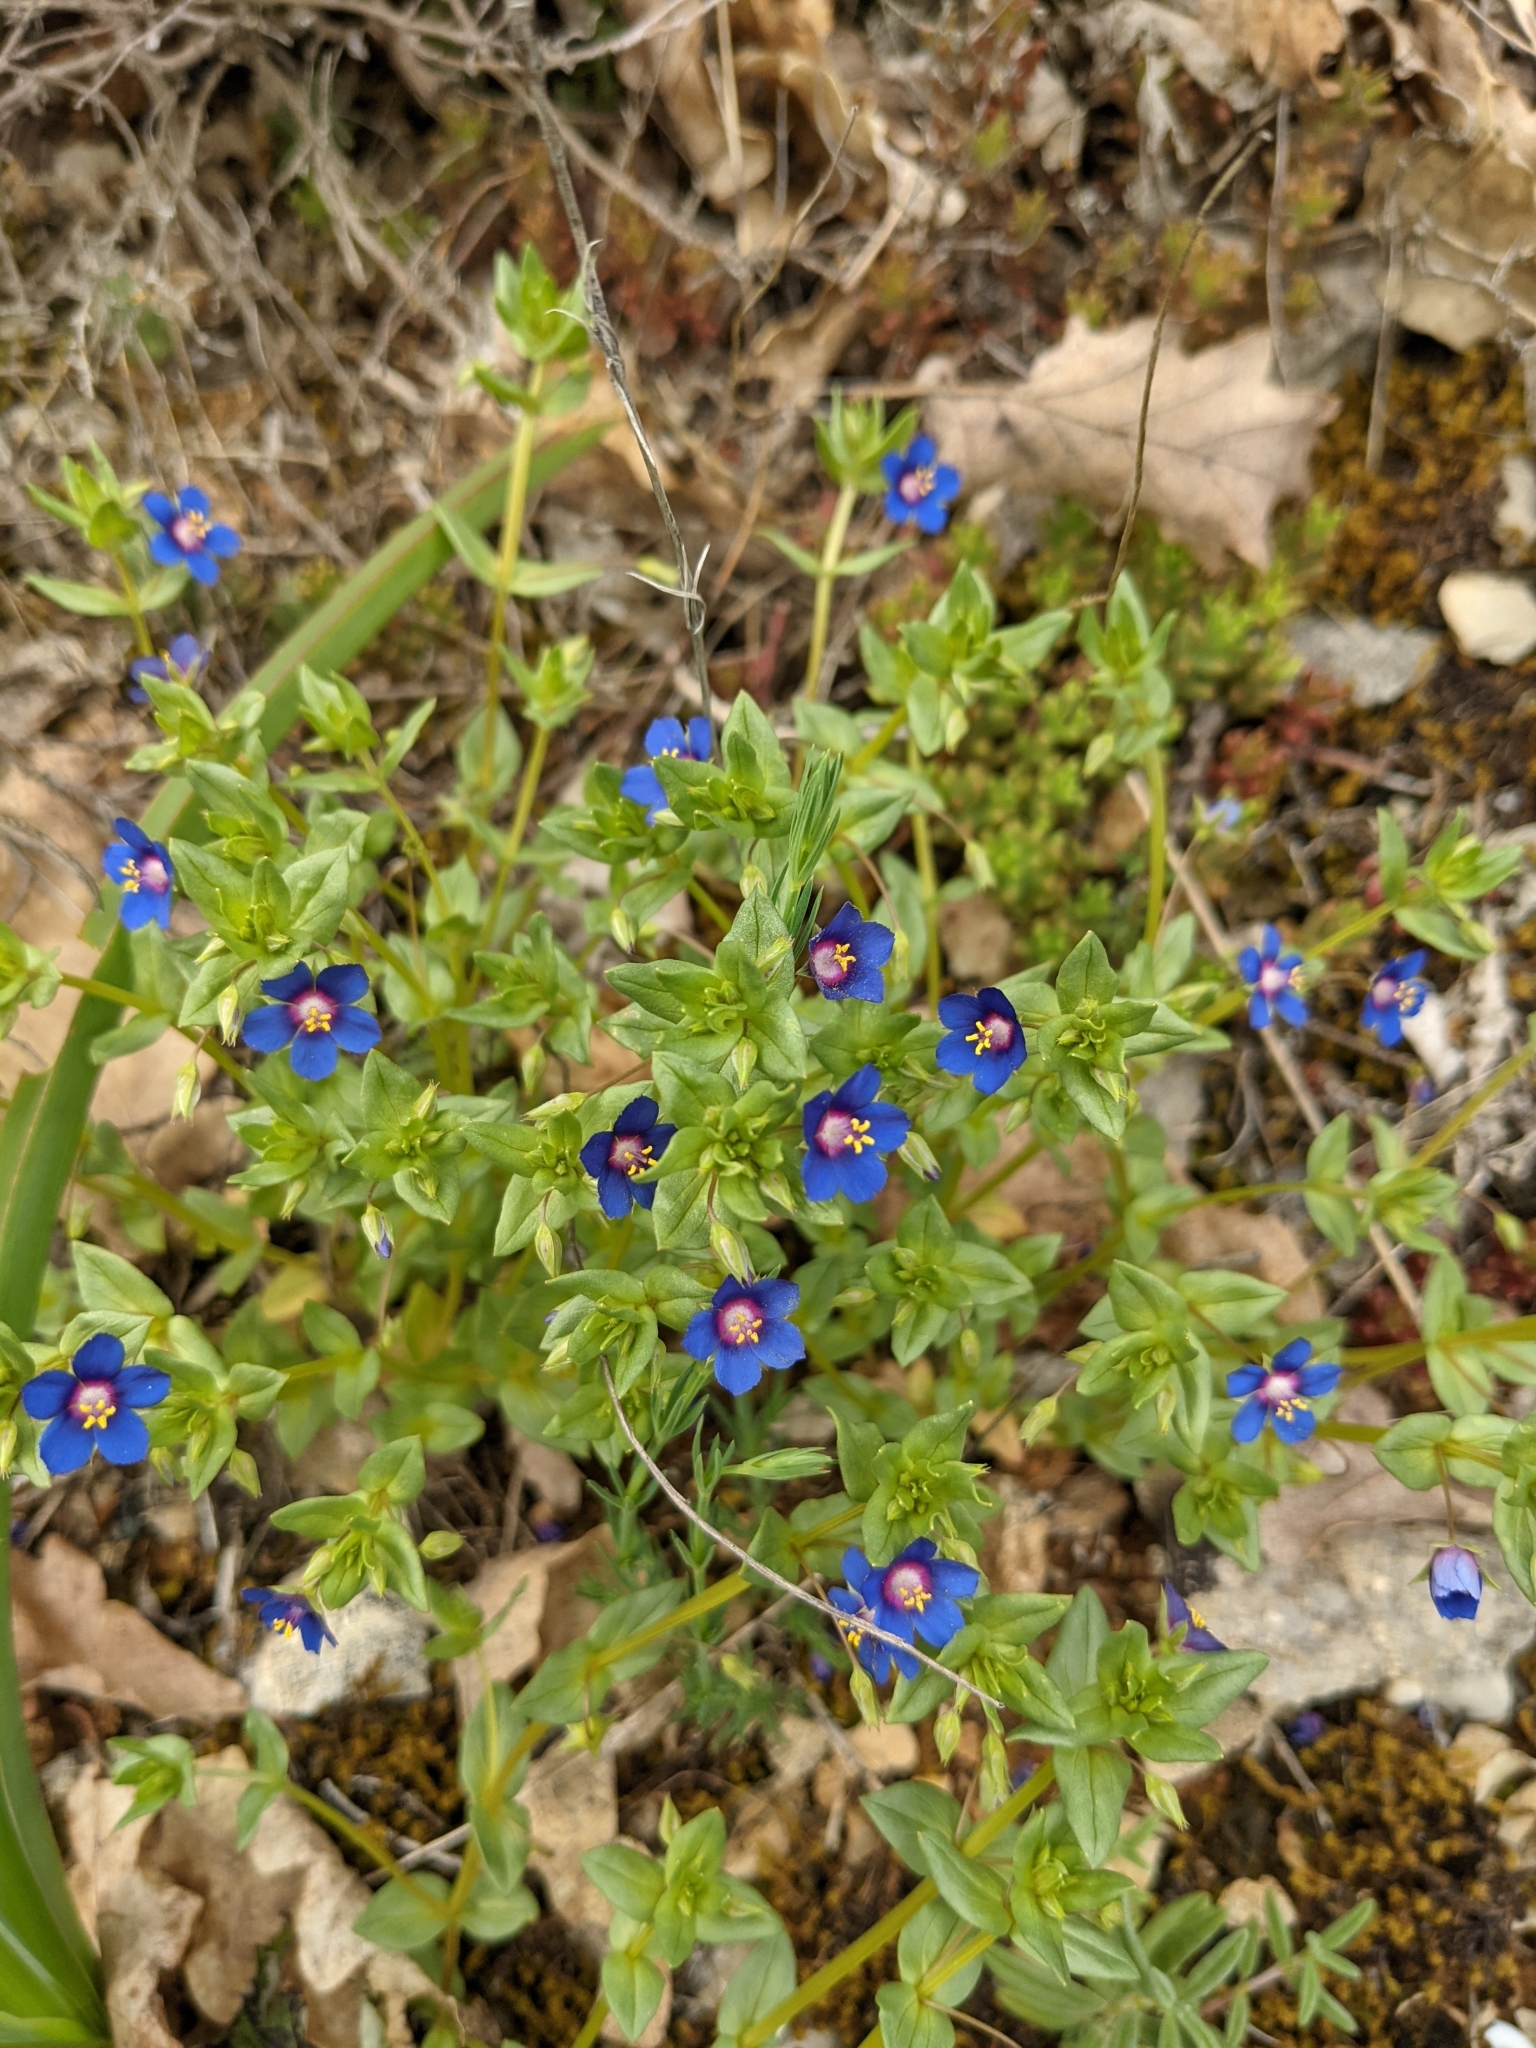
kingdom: Plantae
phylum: Tracheophyta
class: Magnoliopsida
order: Ericales
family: Primulaceae
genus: Lysimachia
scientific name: Lysimachia foemina
